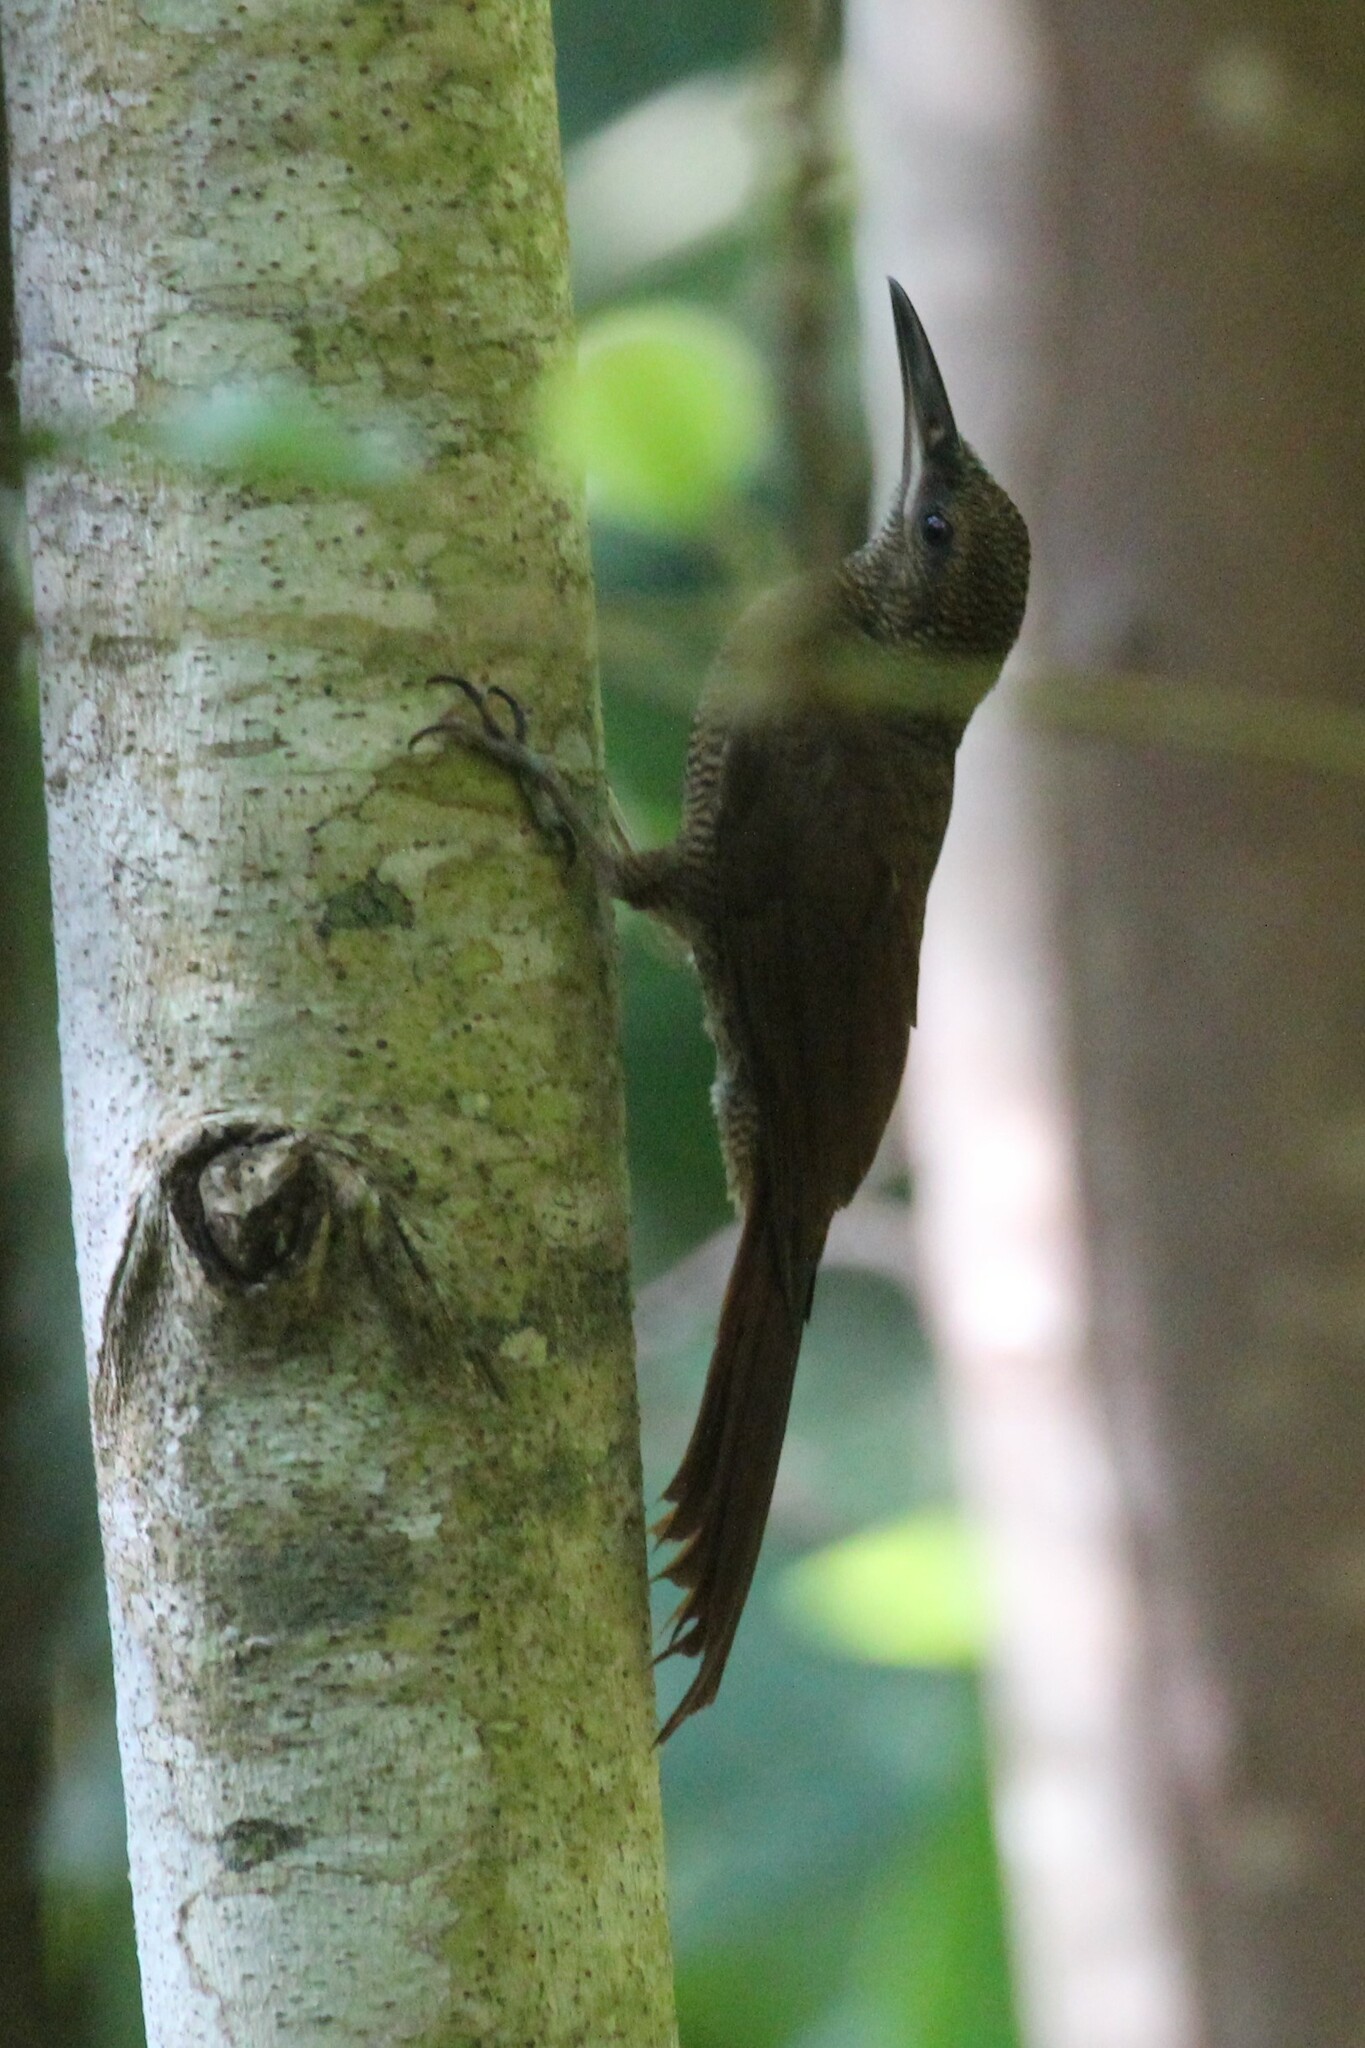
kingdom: Animalia
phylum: Chordata
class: Aves
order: Passeriformes
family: Furnariidae
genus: Dendrocolaptes
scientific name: Dendrocolaptes sanctithomae
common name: Northern barred-woodcreeper
